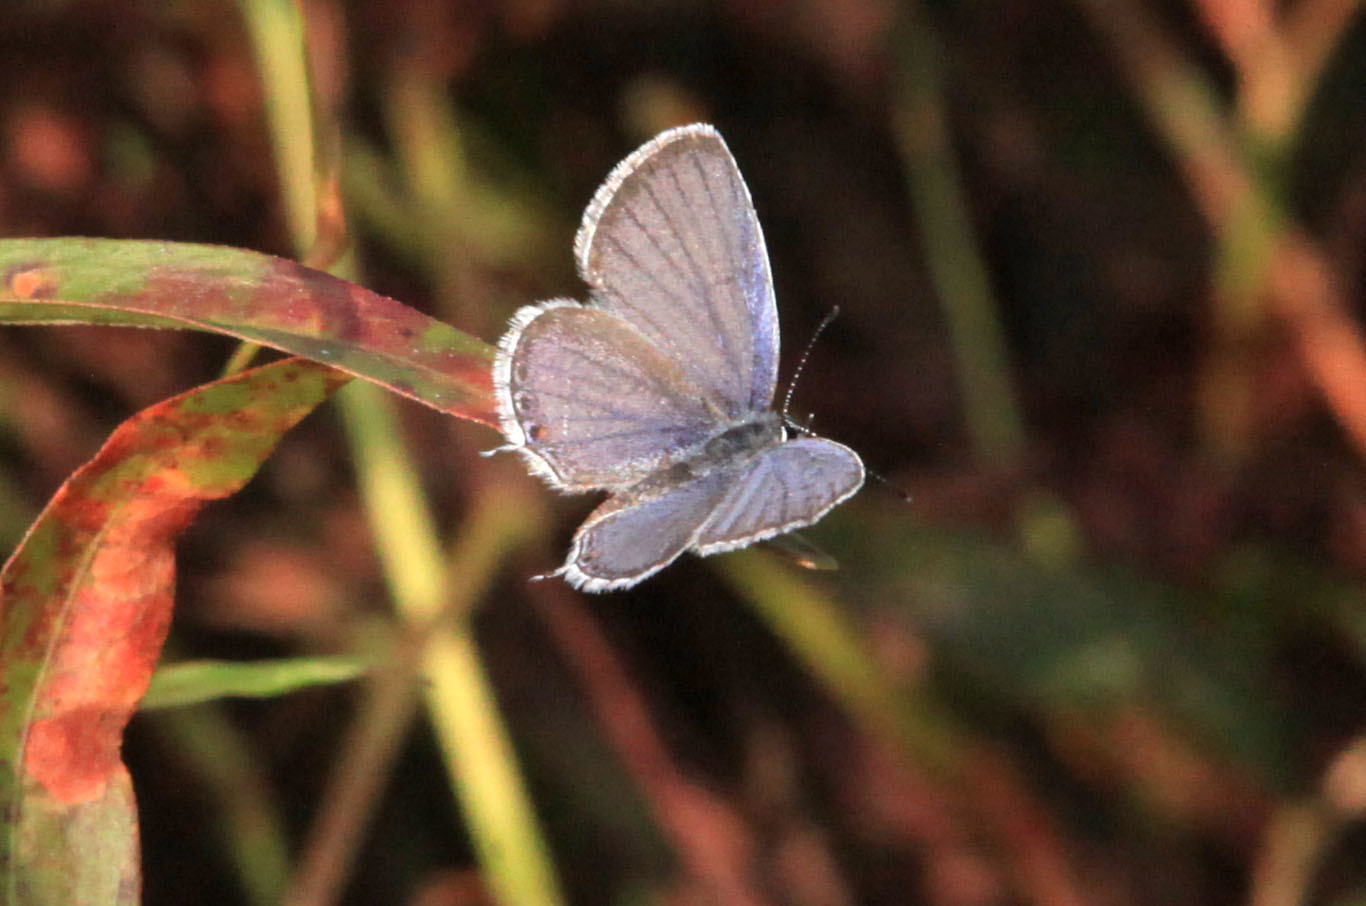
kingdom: Animalia
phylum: Arthropoda
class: Insecta
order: Lepidoptera
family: Lycaenidae
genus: Elkalyce
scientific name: Elkalyce comyntas
